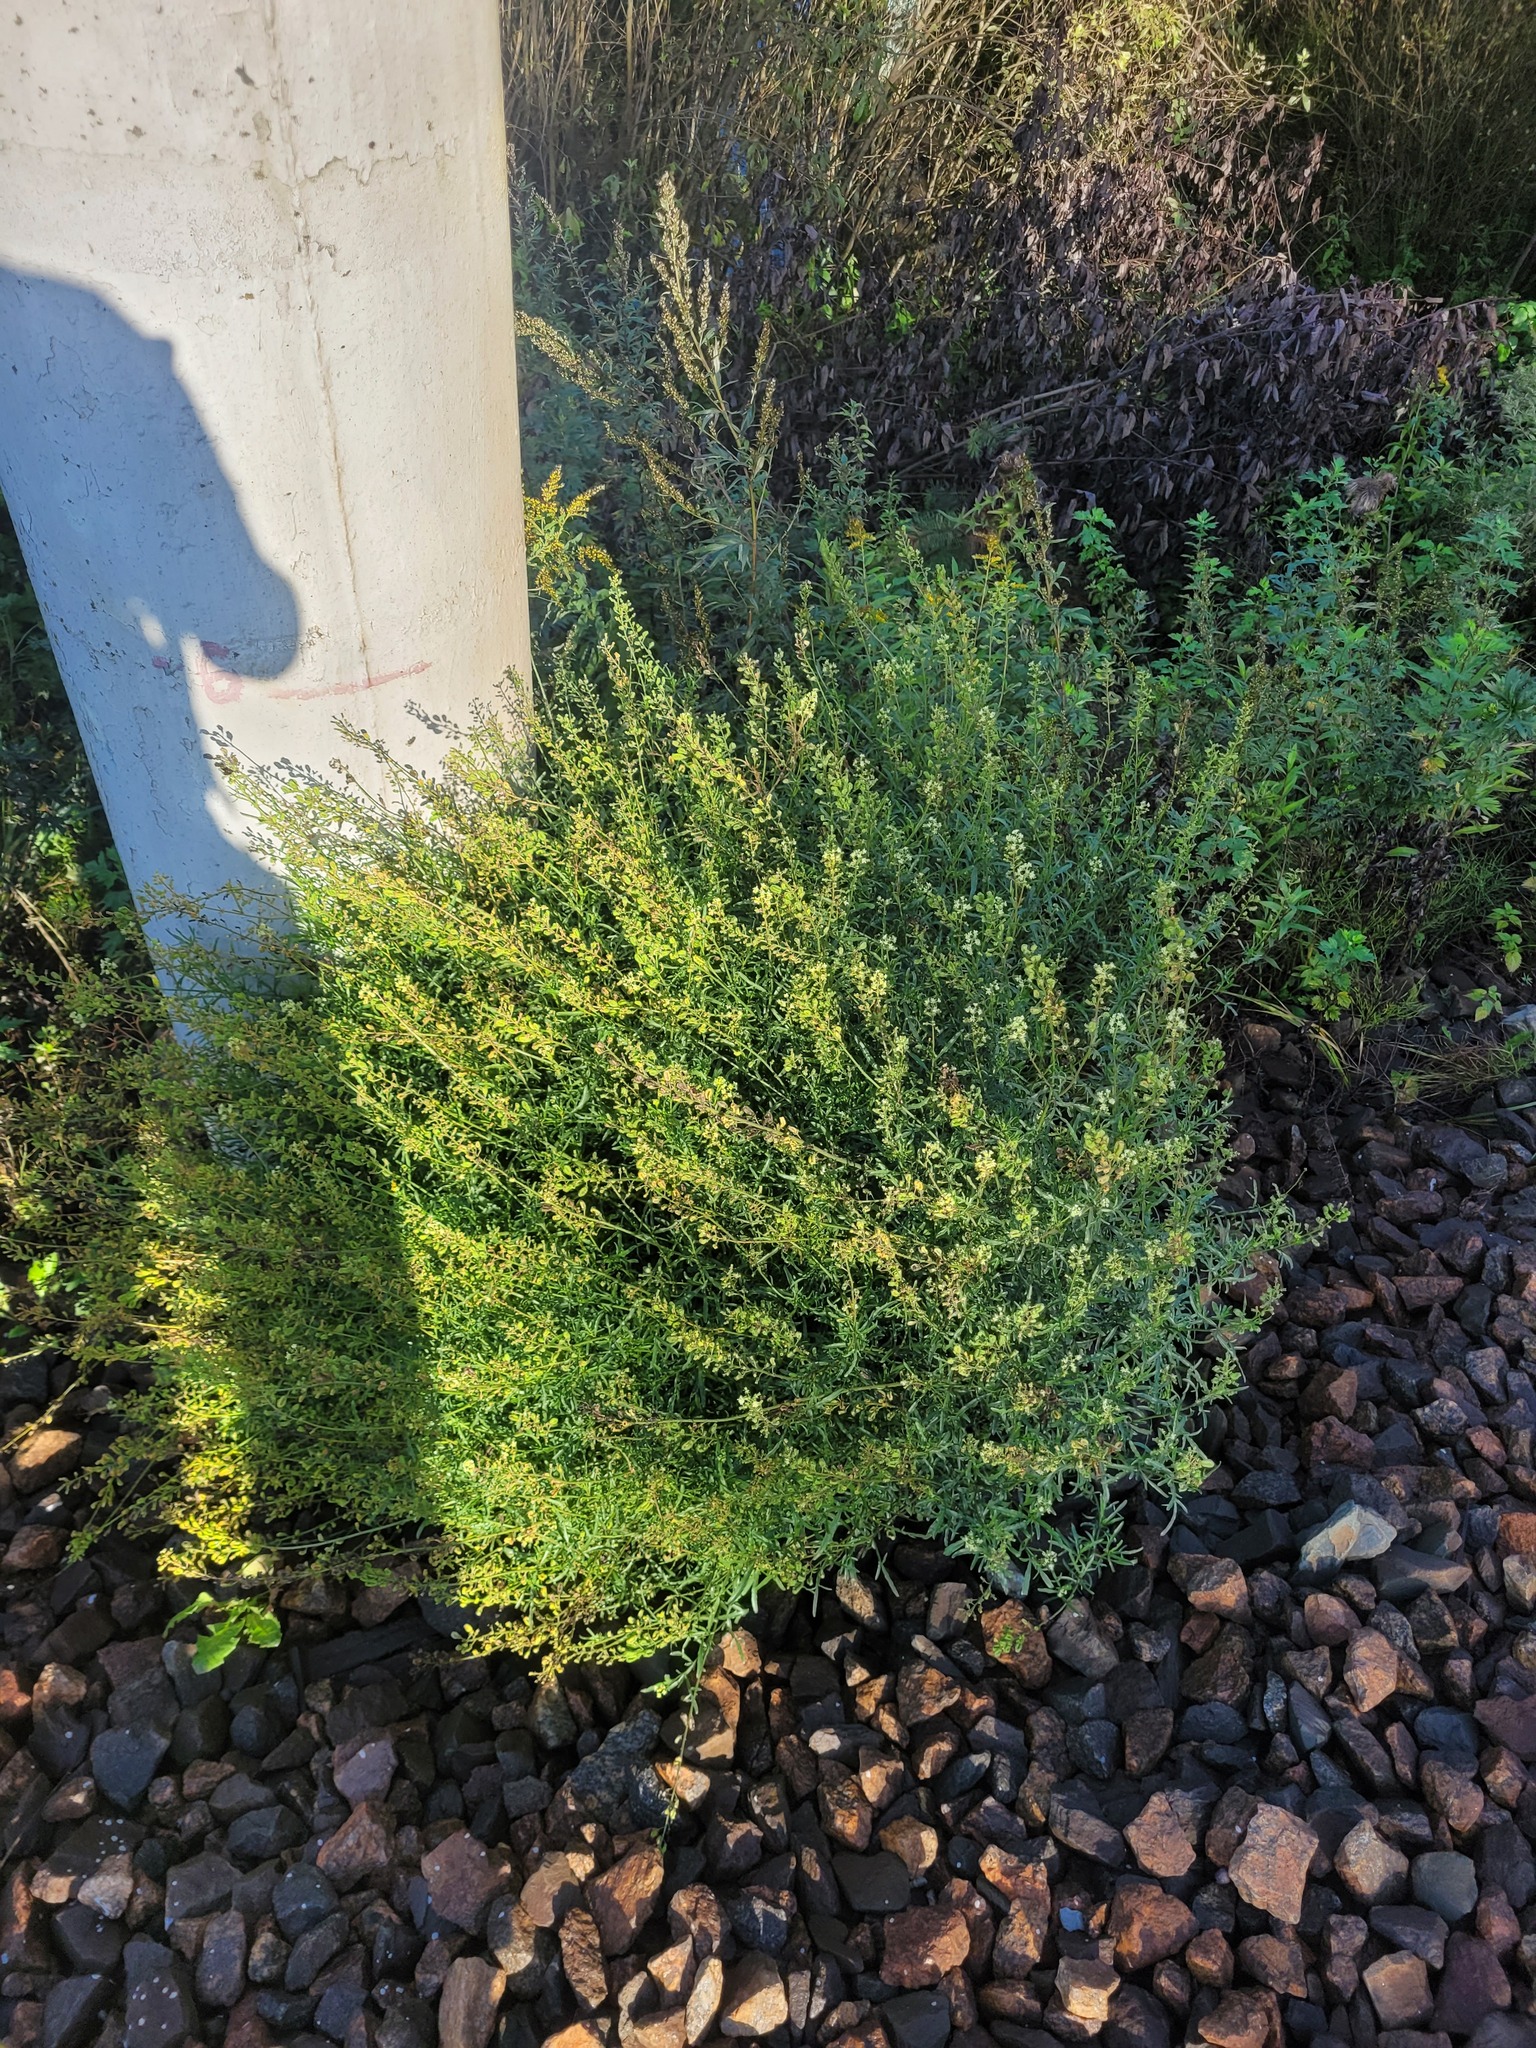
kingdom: Plantae
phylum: Tracheophyta
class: Magnoliopsida
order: Brassicales
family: Resedaceae
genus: Reseda
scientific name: Reseda lutea
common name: Wild mignonette
